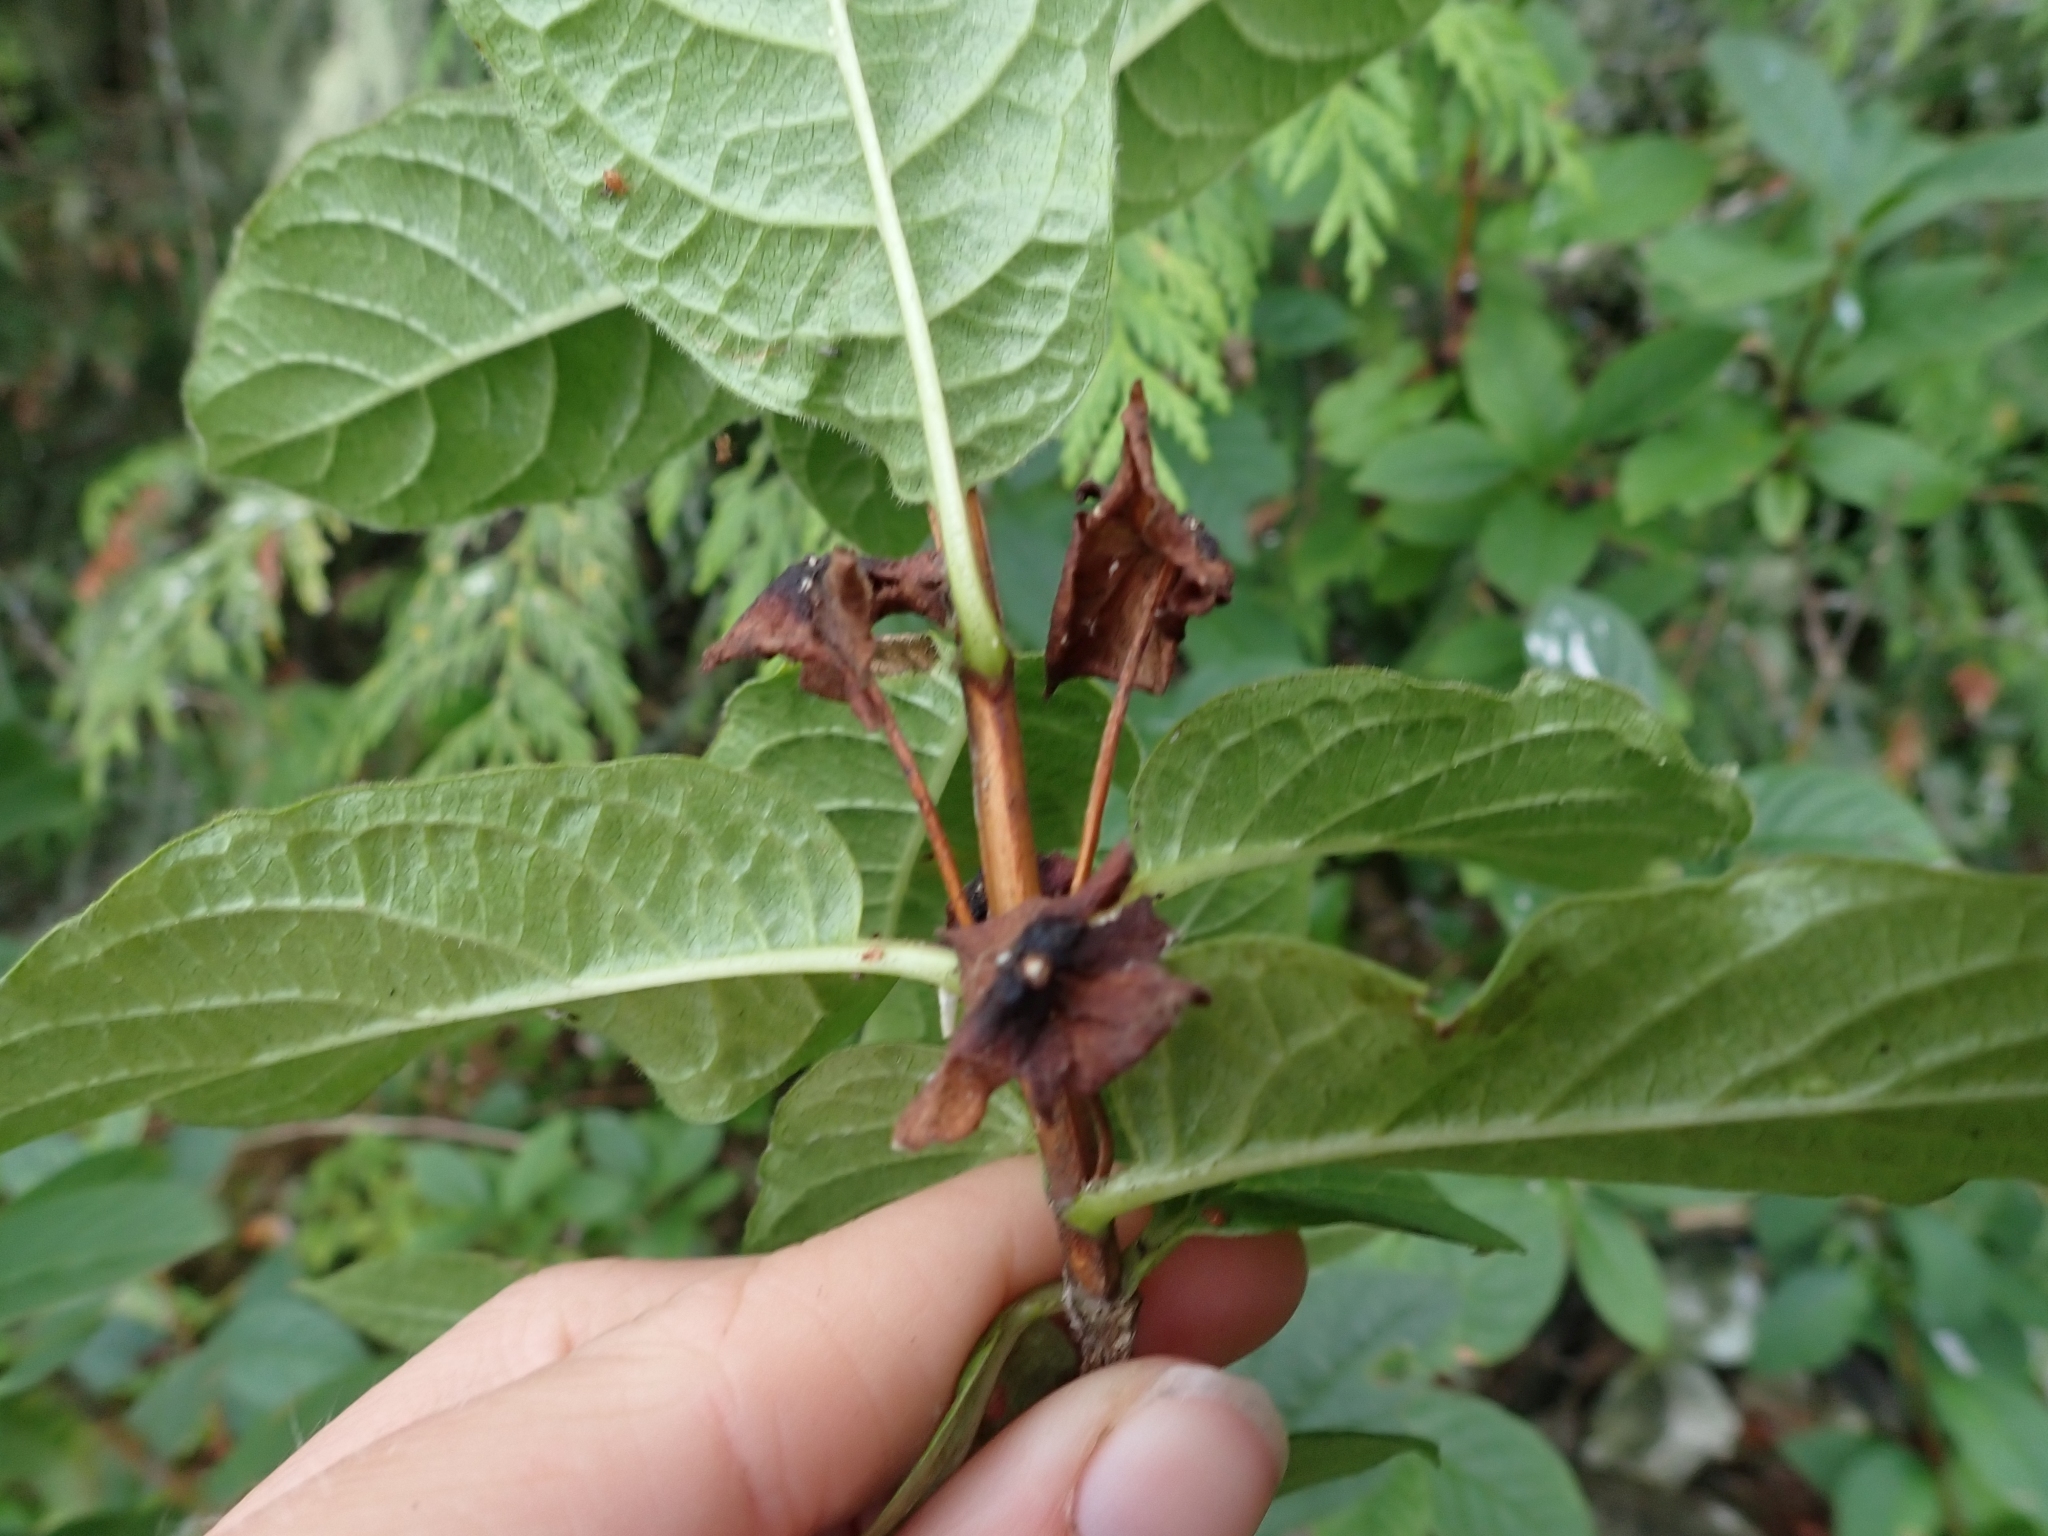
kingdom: Plantae
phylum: Tracheophyta
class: Magnoliopsida
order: Dipsacales
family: Caprifoliaceae
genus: Lonicera
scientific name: Lonicera involucrata
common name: Californian honeysuckle
